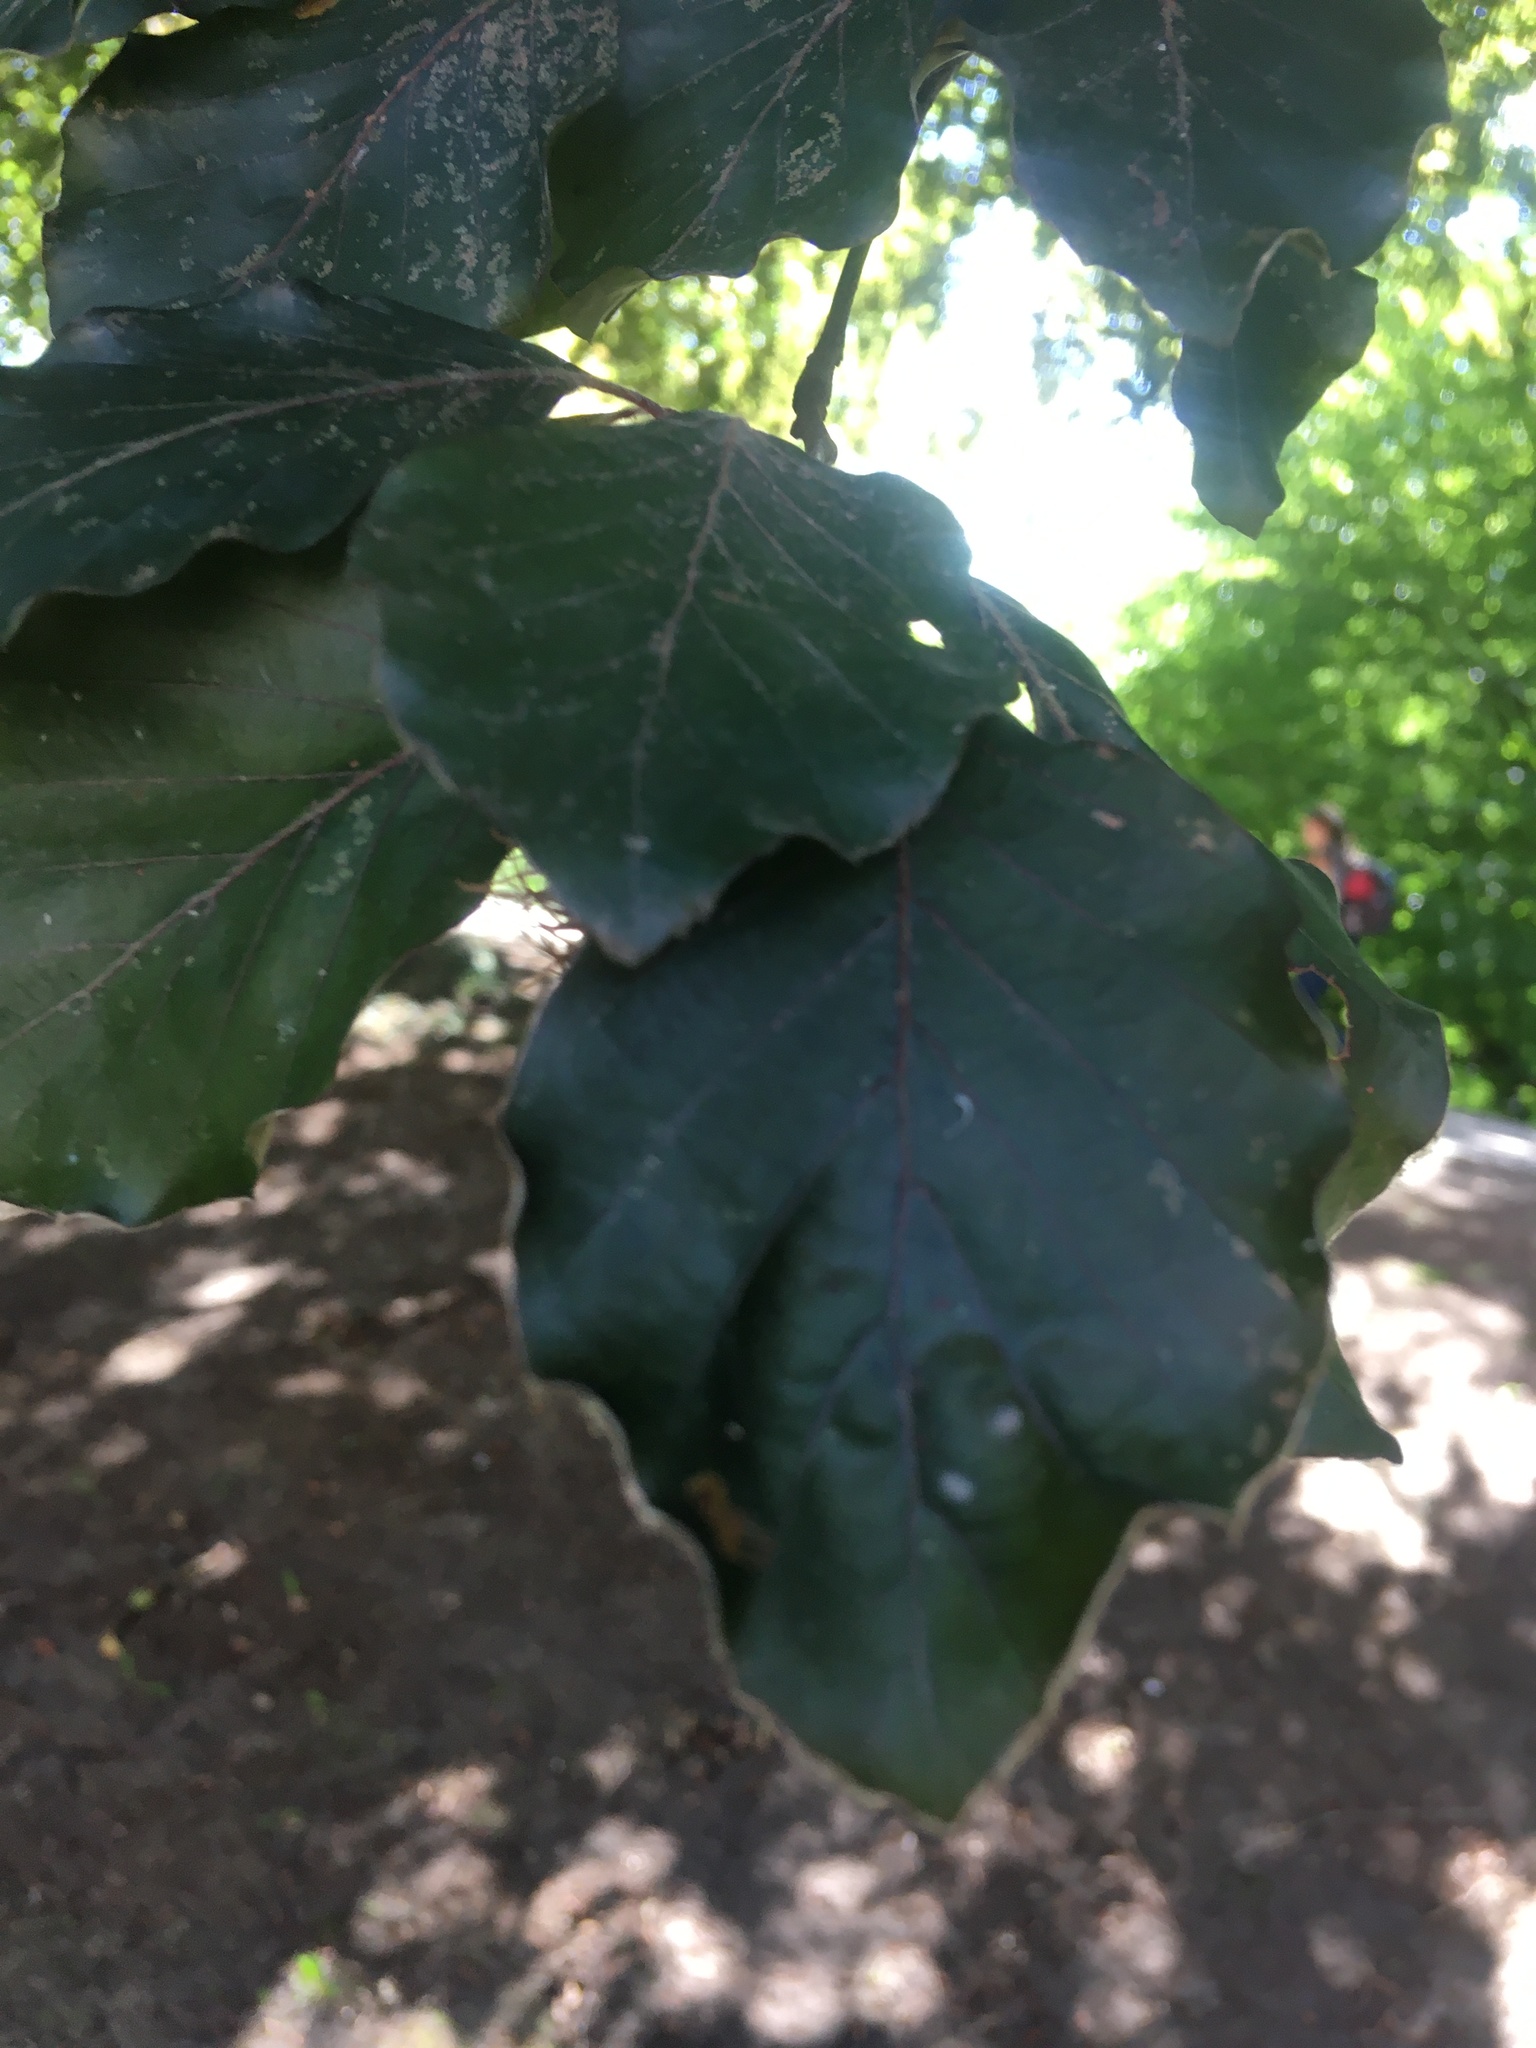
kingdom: Plantae
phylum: Tracheophyta
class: Magnoliopsida
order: Fagales
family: Fagaceae
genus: Fagus
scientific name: Fagus sylvatica
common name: Beech
